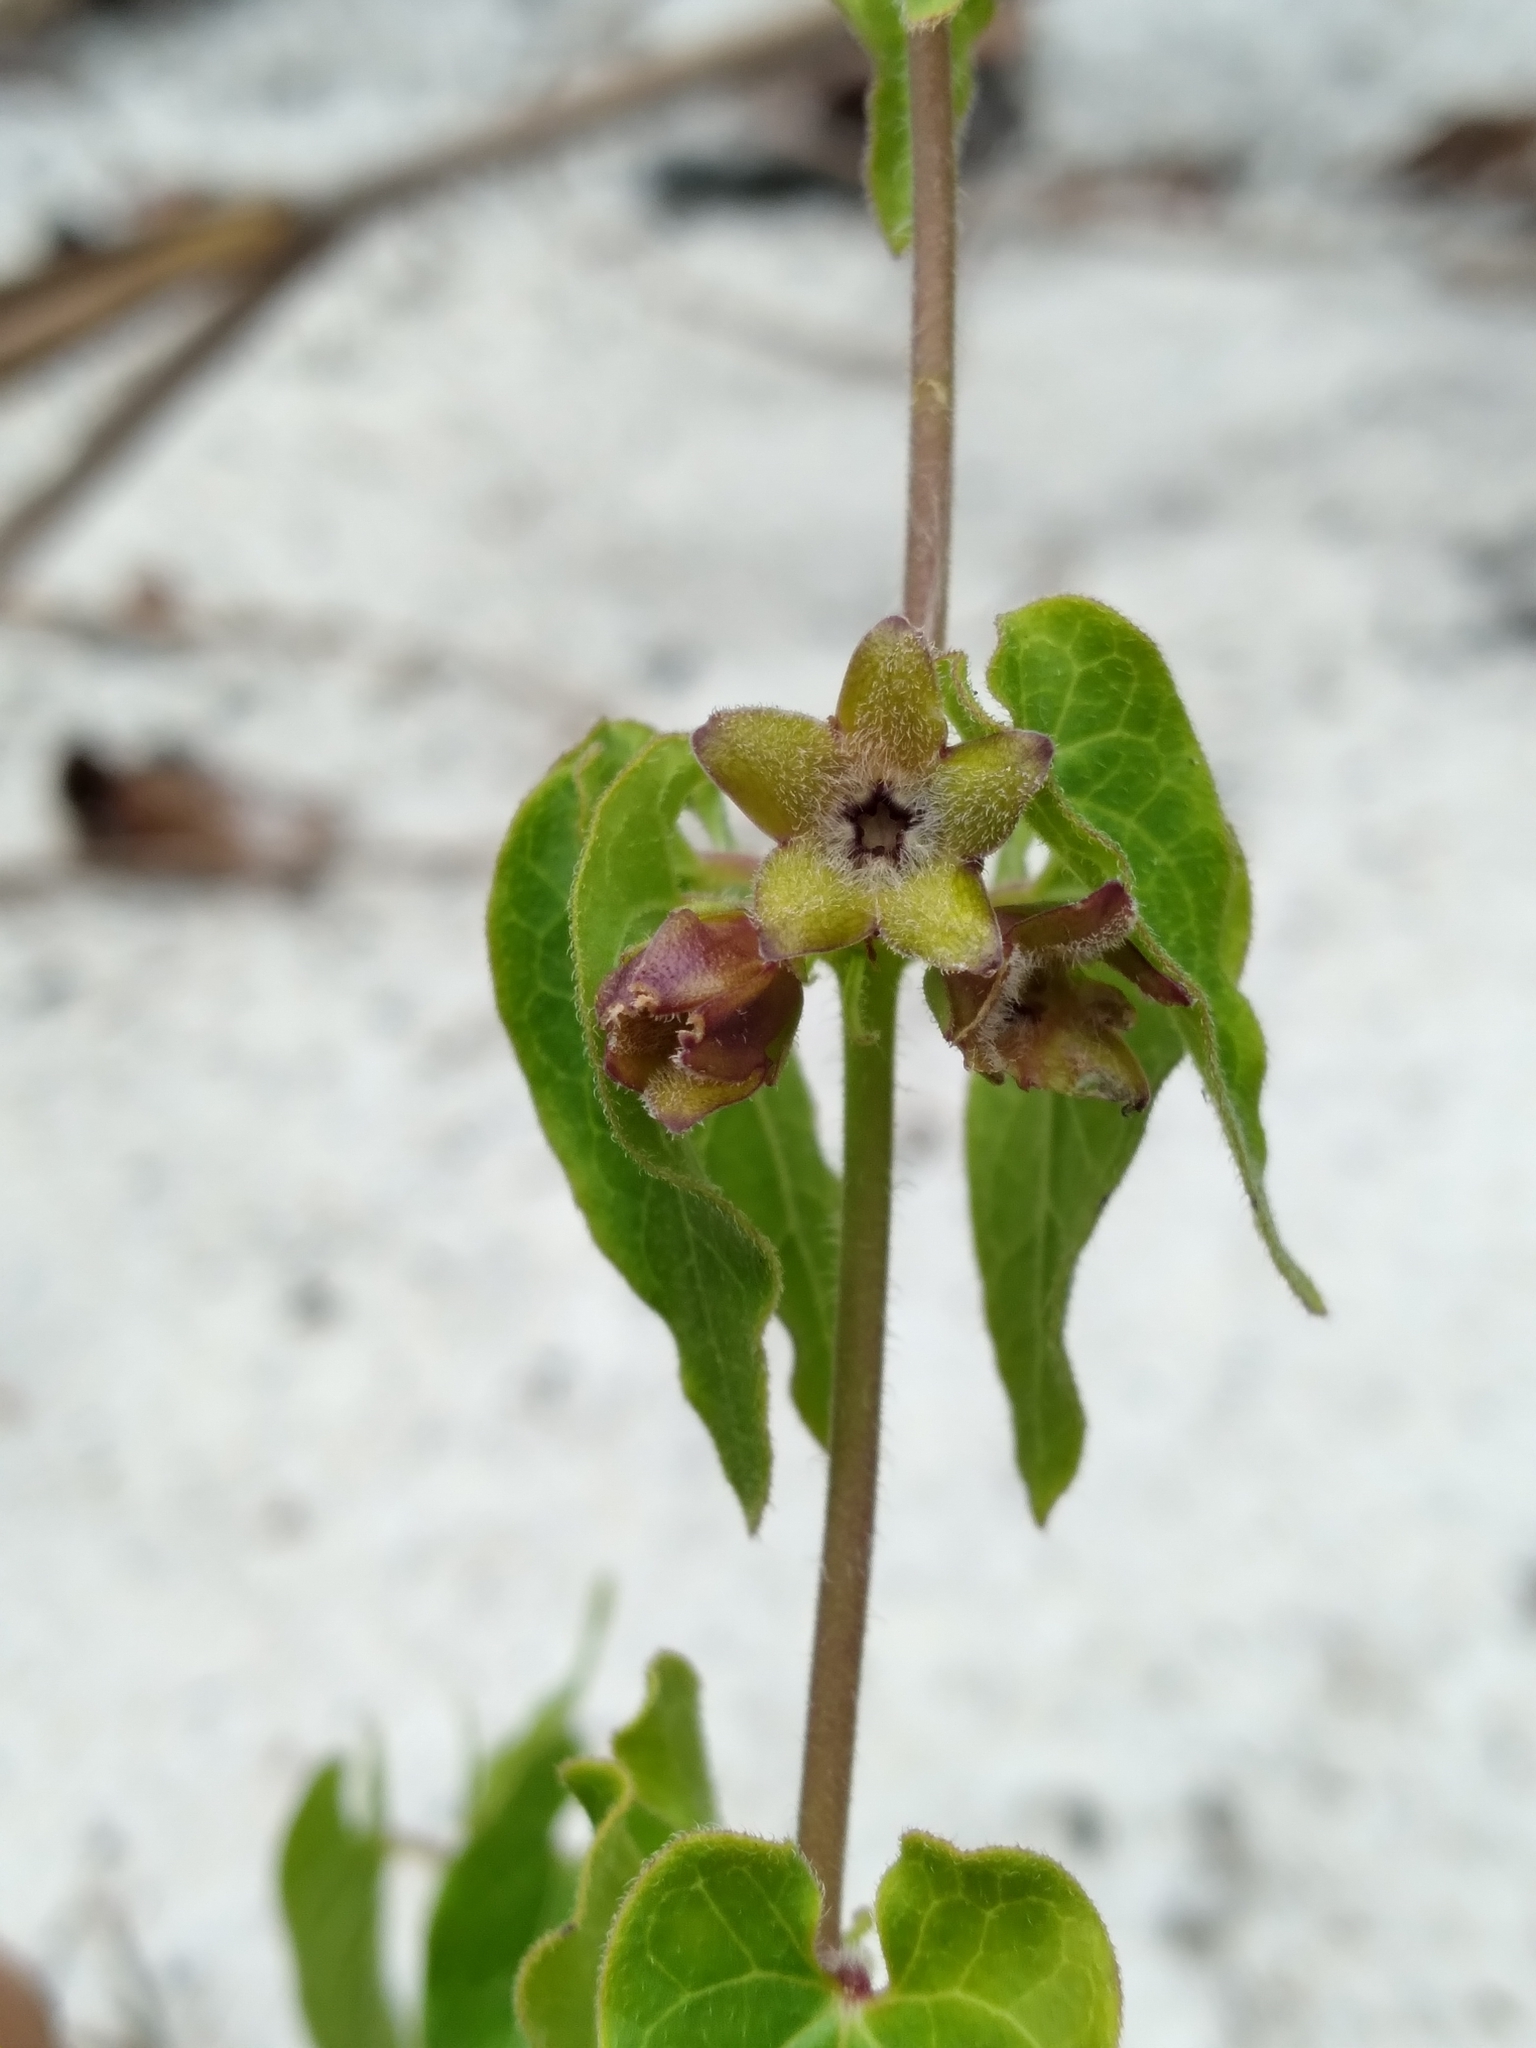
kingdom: Plantae
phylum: Tracheophyta
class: Magnoliopsida
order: Gentianales
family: Apocynaceae
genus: Chthamalia
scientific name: Chthamalia pubiflora
